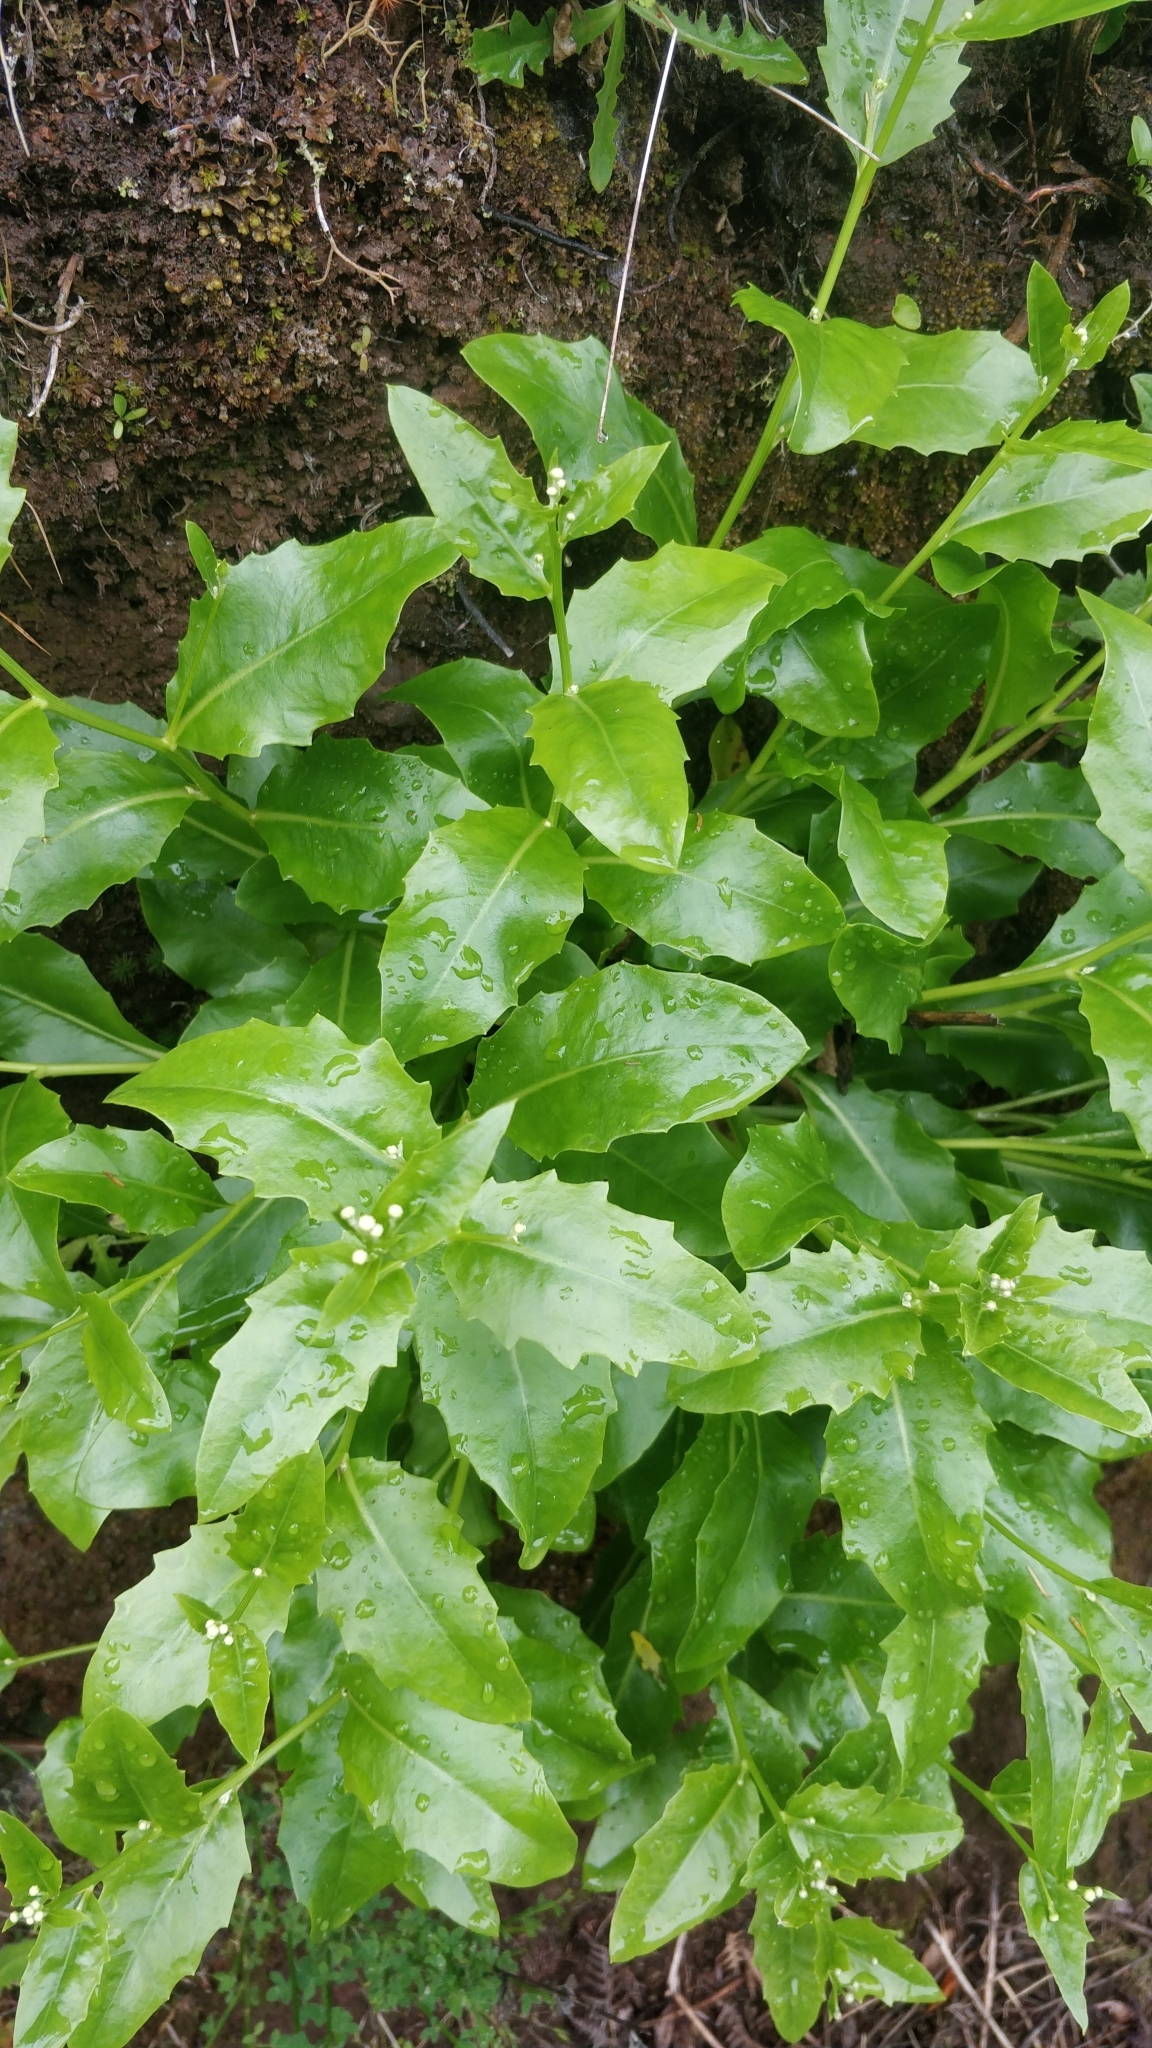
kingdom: Plantae
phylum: Tracheophyta
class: Magnoliopsida
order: Asterales
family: Asteraceae
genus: Tolpis
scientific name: Tolpis macrorhiza
